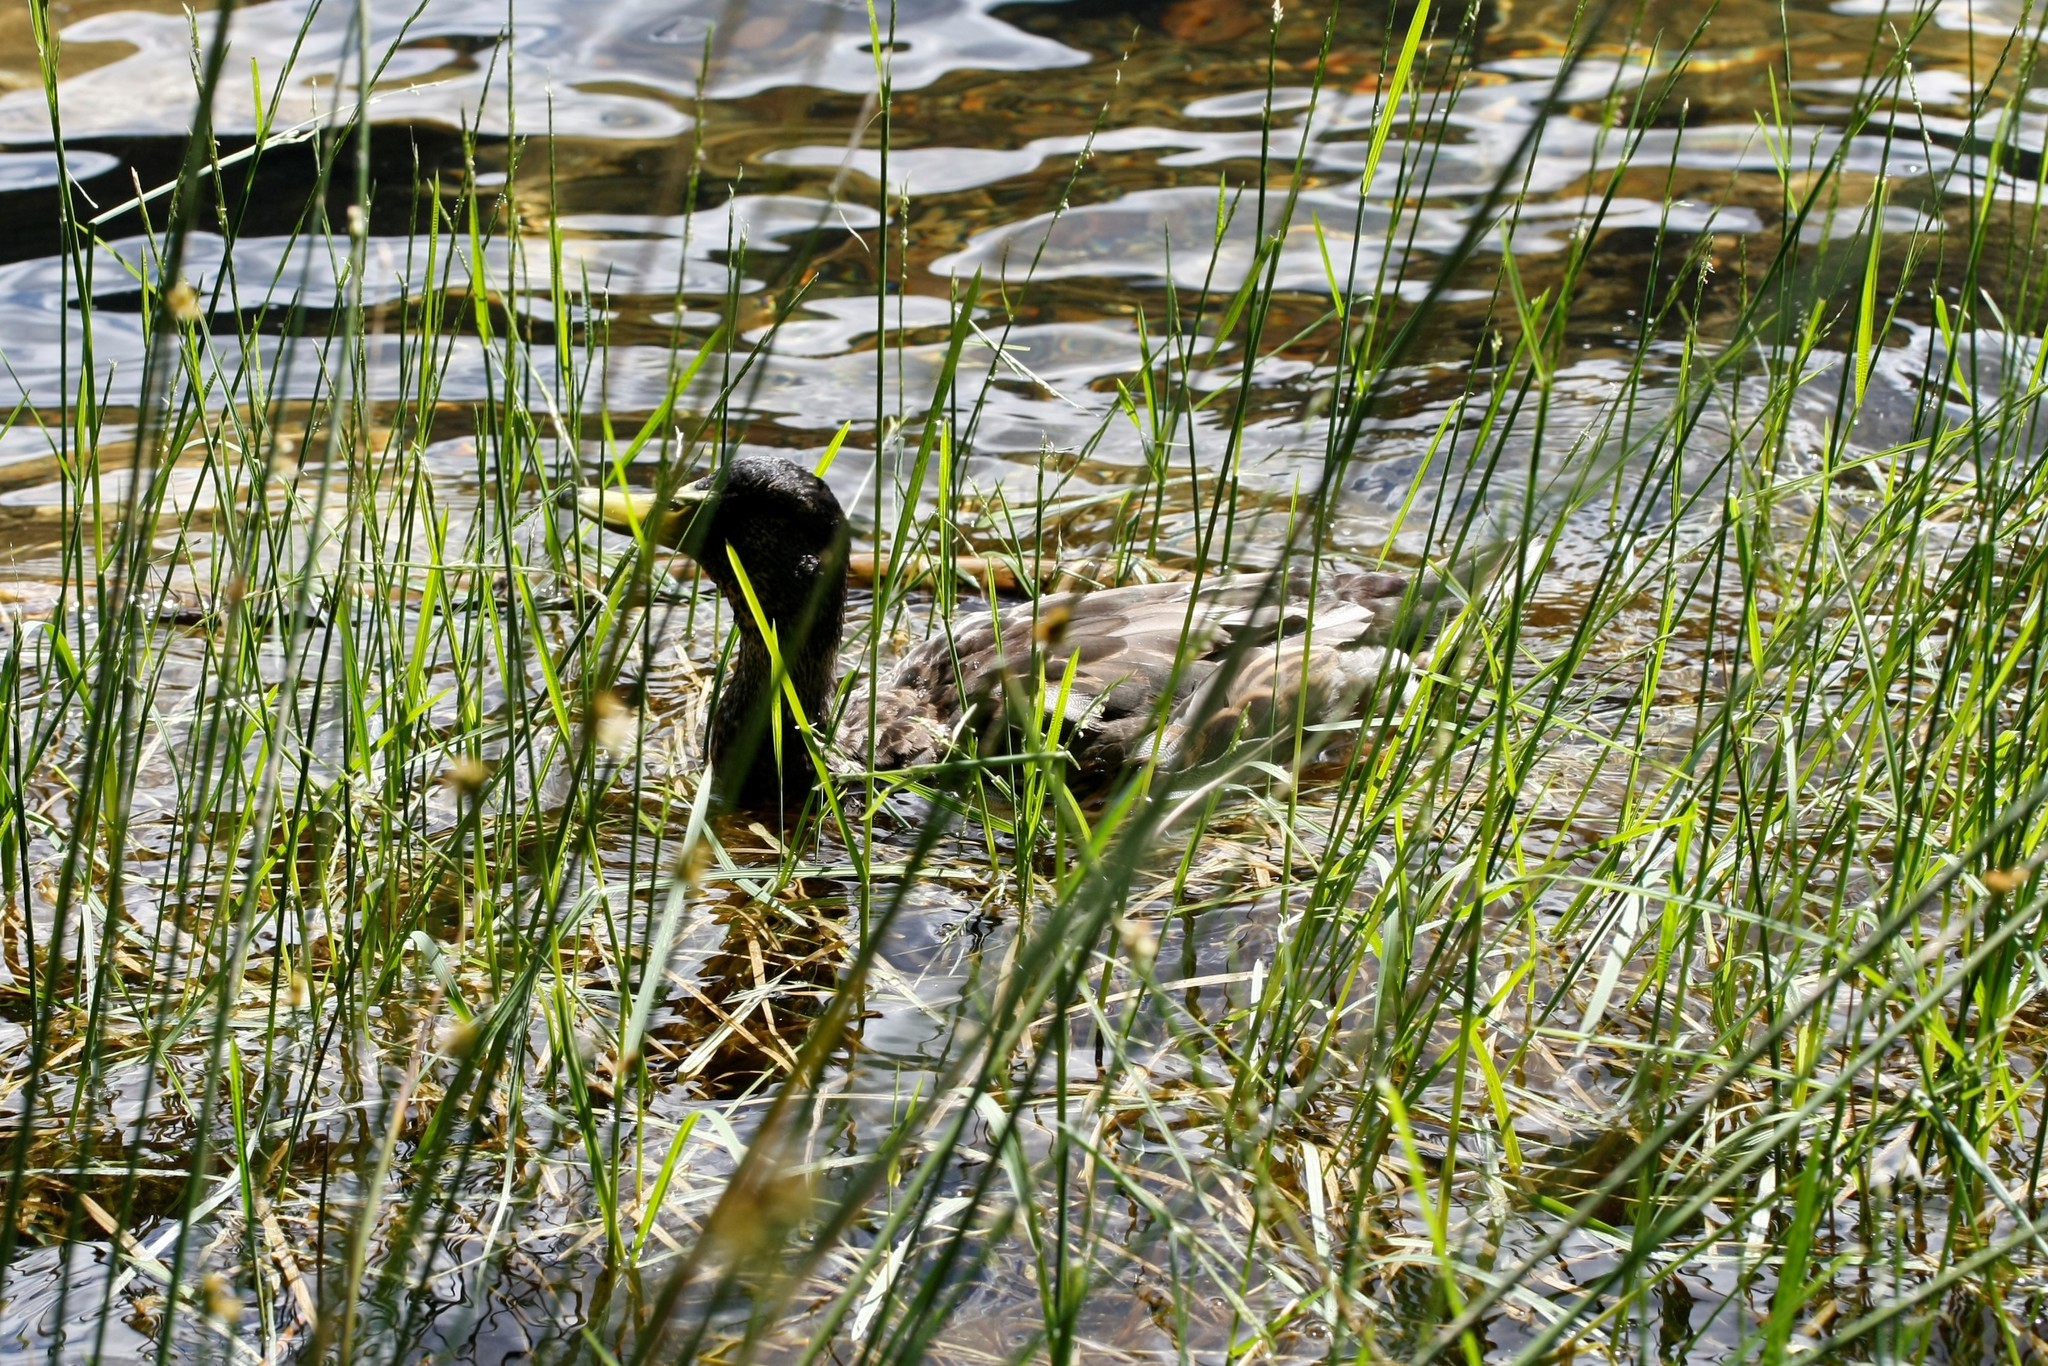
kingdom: Animalia
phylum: Chordata
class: Aves
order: Anseriformes
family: Anatidae
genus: Anas
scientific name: Anas platyrhynchos
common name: Mallard
